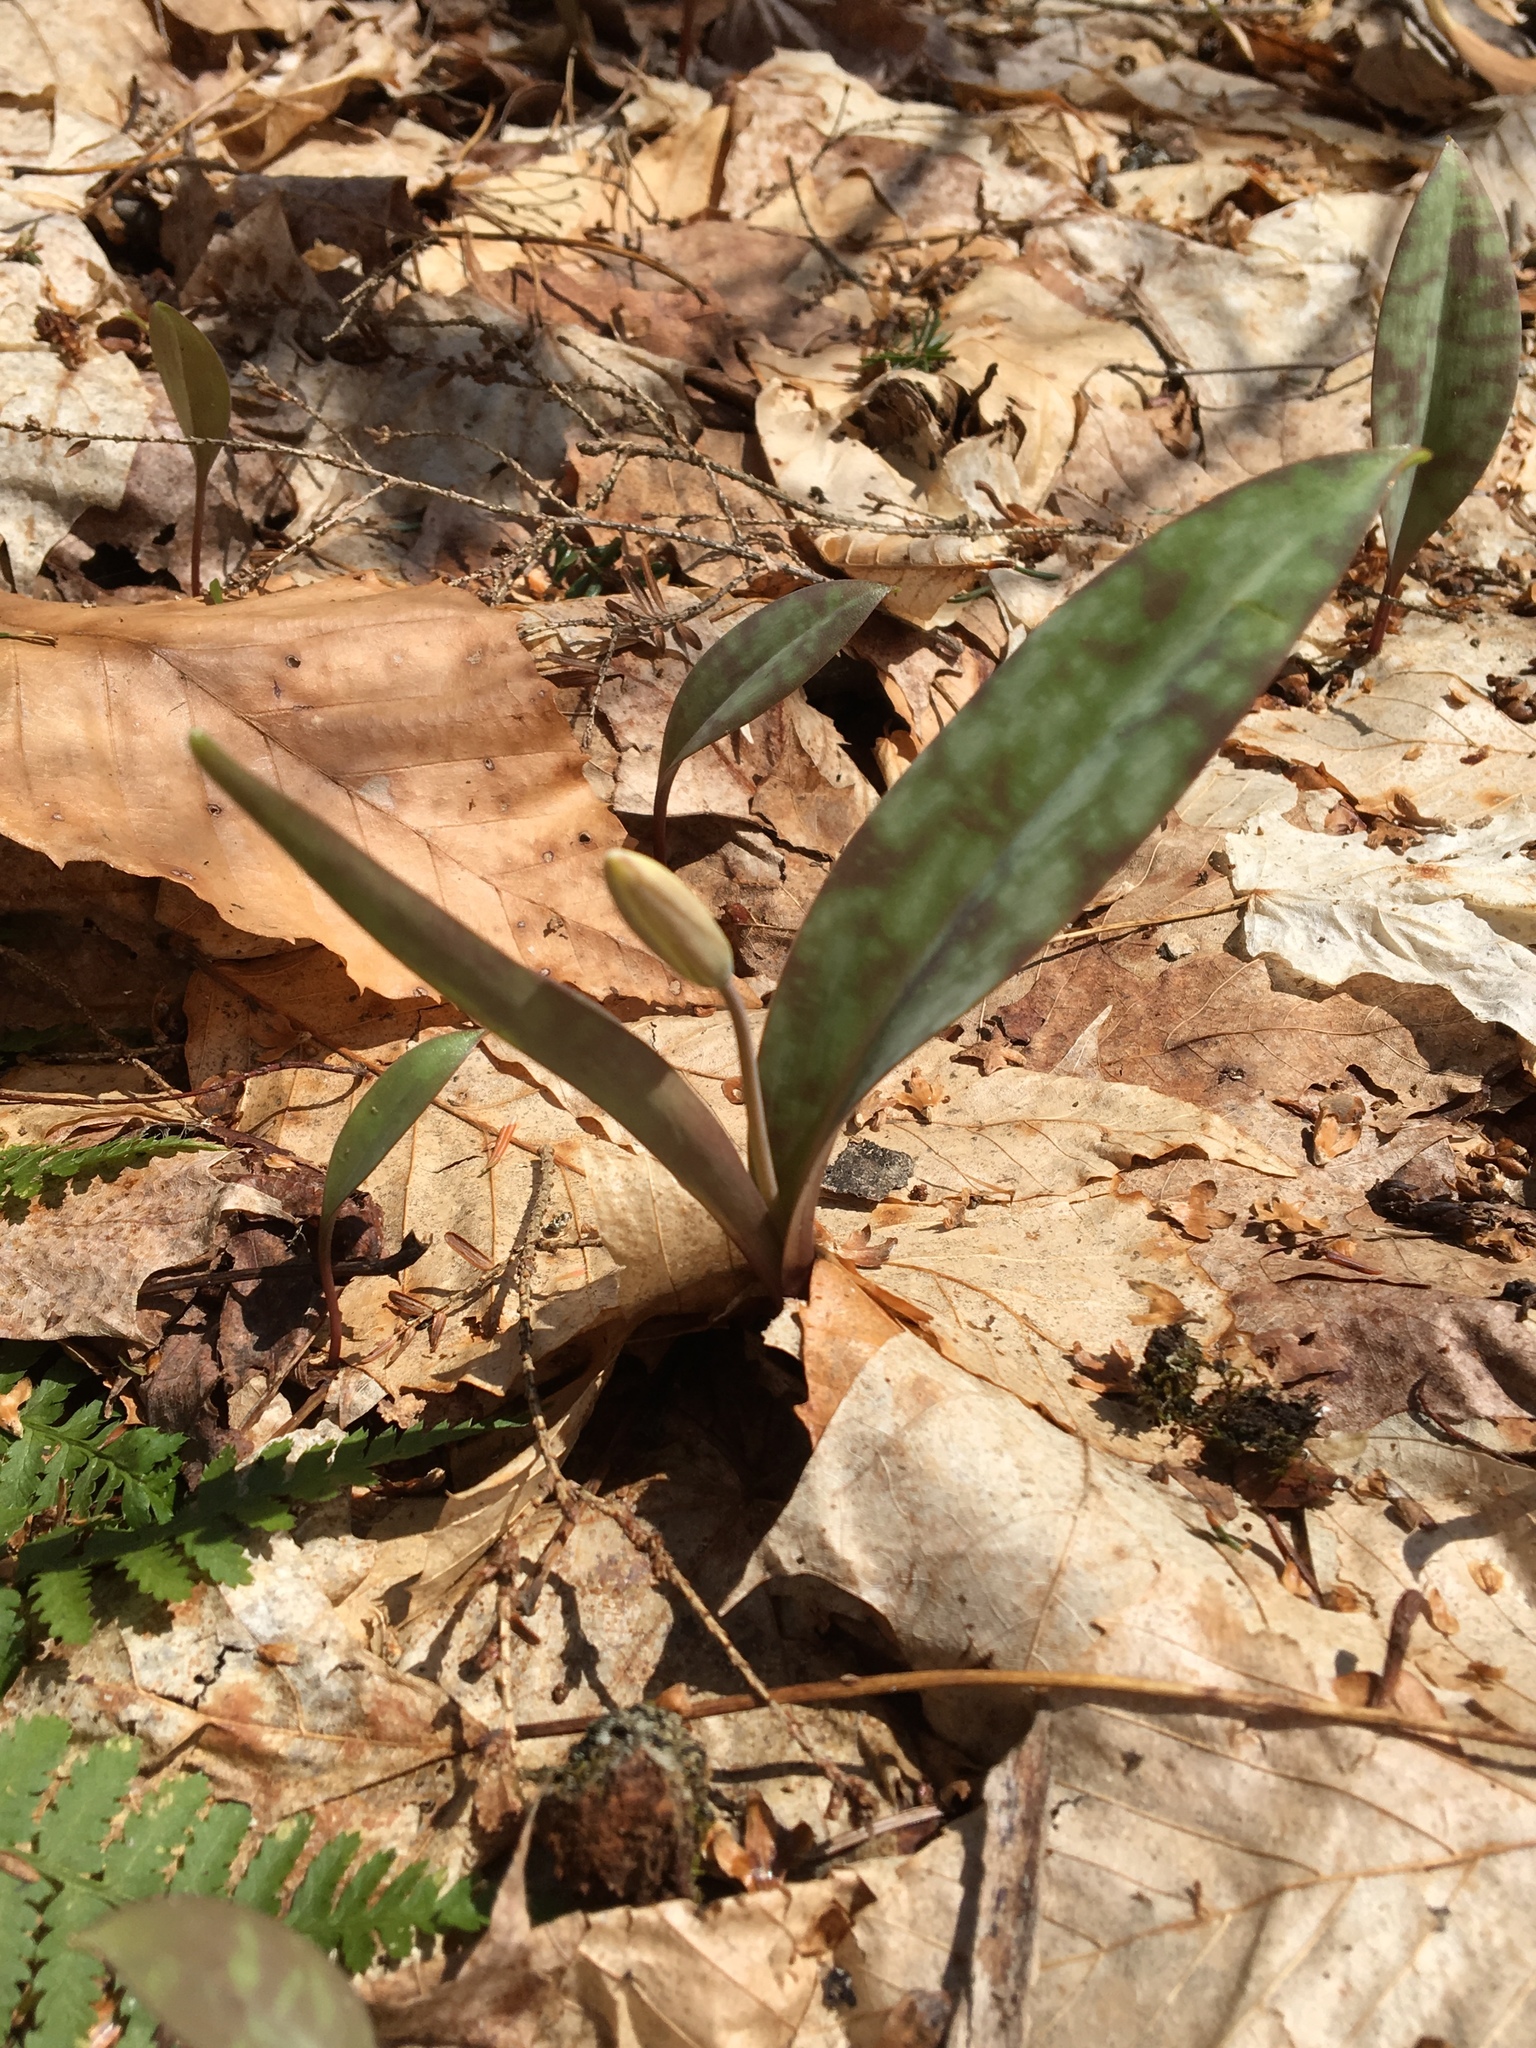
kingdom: Plantae
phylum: Tracheophyta
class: Liliopsida
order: Liliales
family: Liliaceae
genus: Erythronium
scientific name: Erythronium americanum
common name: Yellow adder's-tongue
